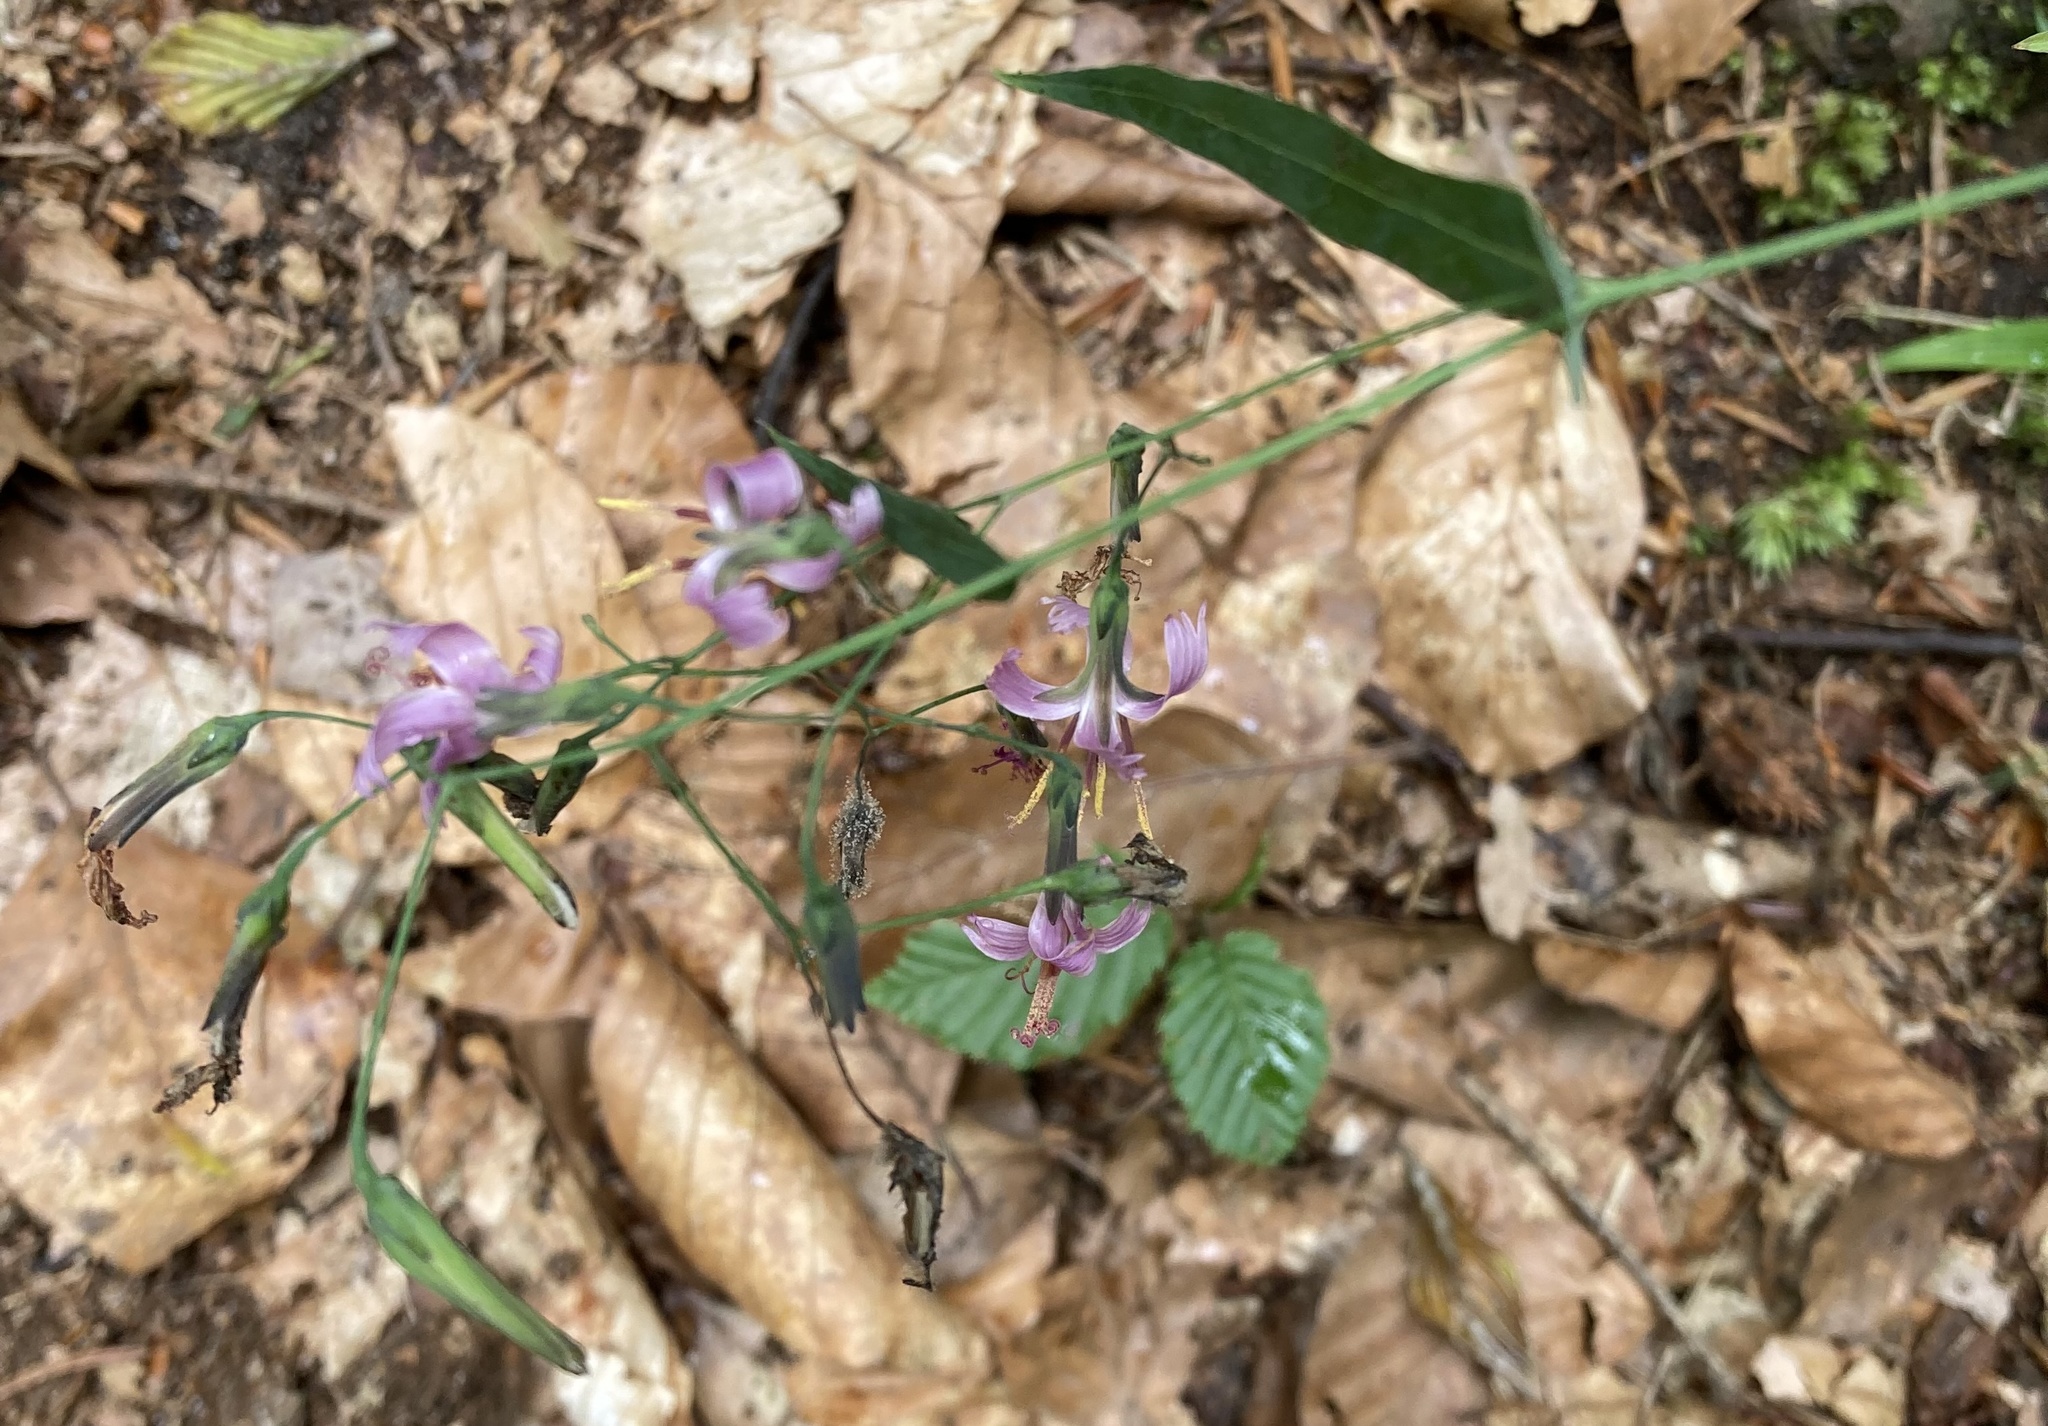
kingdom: Plantae
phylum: Tracheophyta
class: Magnoliopsida
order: Asterales
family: Asteraceae
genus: Prenanthes
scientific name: Prenanthes purpurea
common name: Purple lettuce
